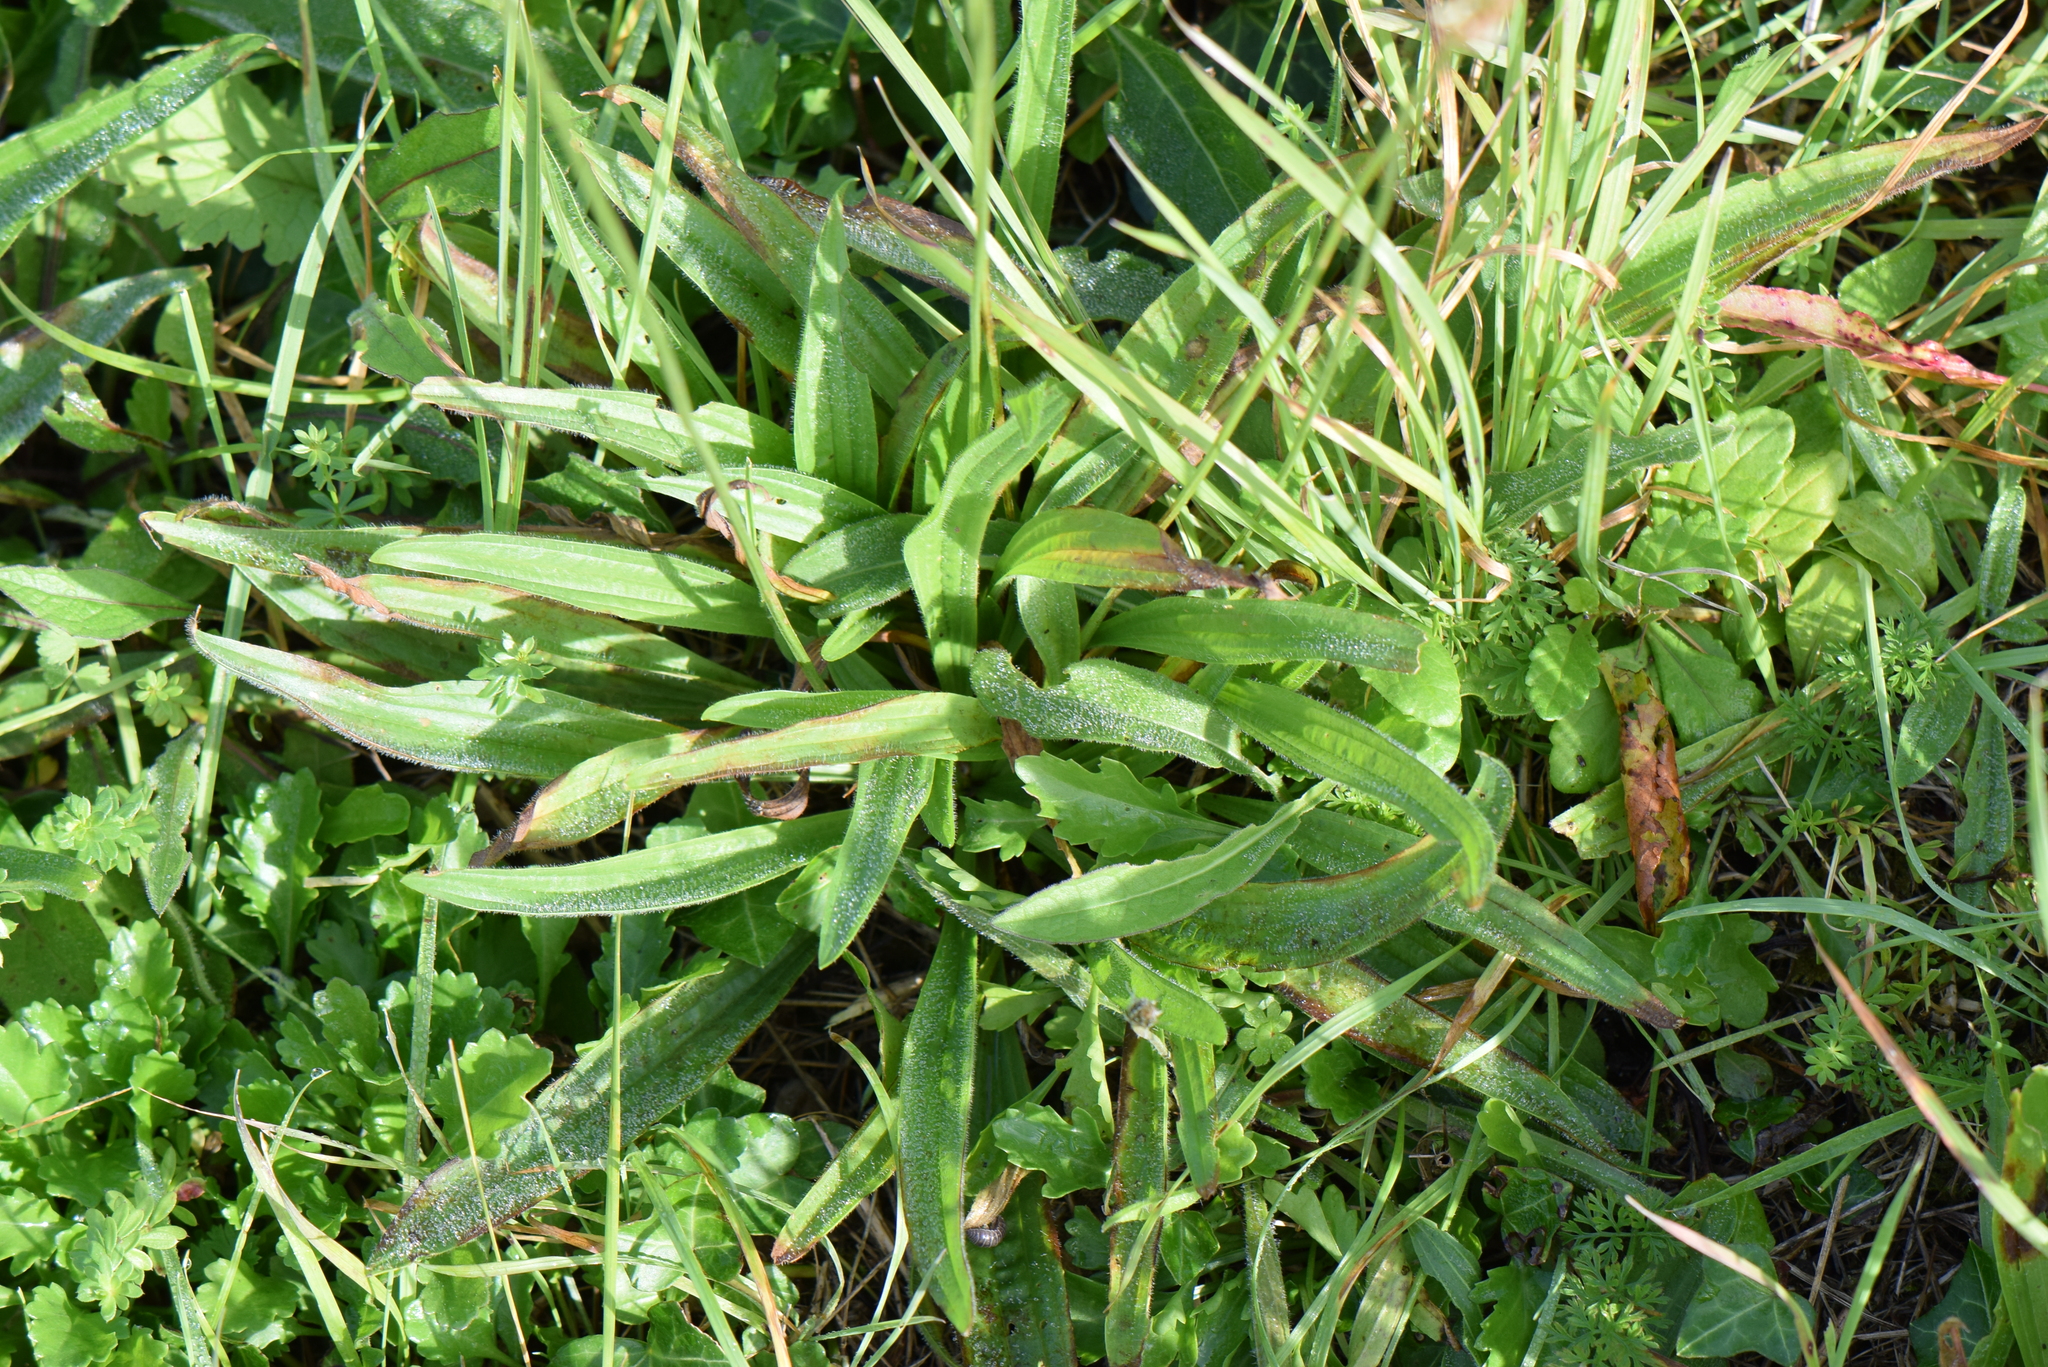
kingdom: Plantae
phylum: Tracheophyta
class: Magnoliopsida
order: Lamiales
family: Plantaginaceae
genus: Plantago
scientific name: Plantago lanceolata
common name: Ribwort plantain
